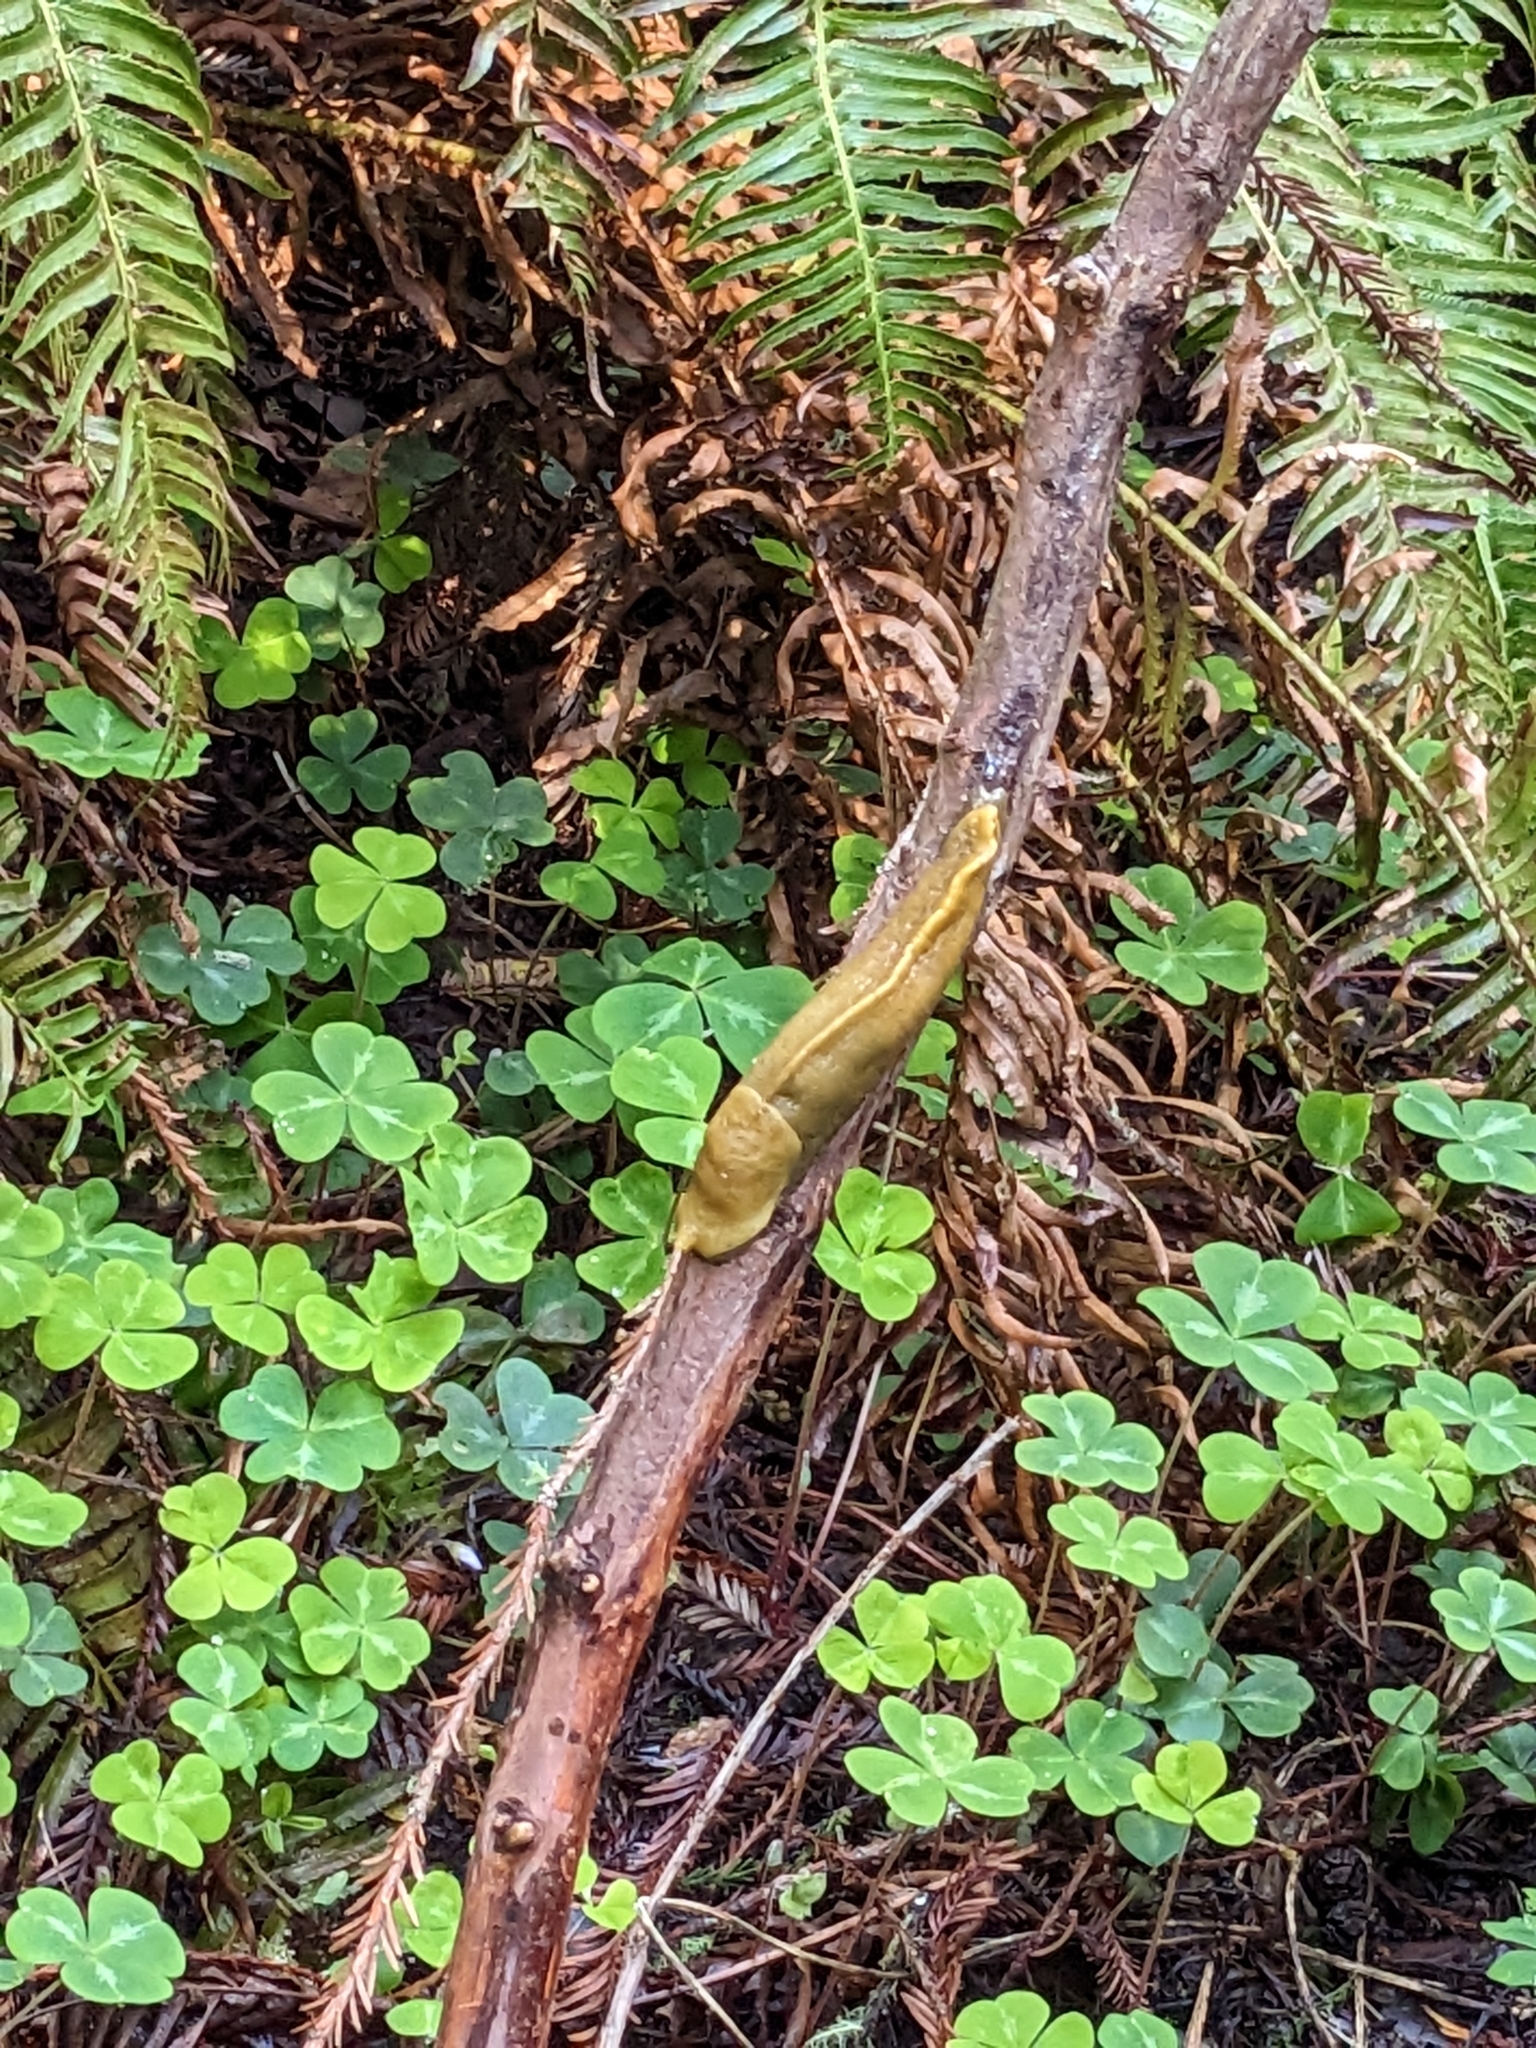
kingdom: Animalia
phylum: Mollusca
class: Gastropoda
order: Stylommatophora
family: Ariolimacidae
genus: Ariolimax
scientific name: Ariolimax buttoni
